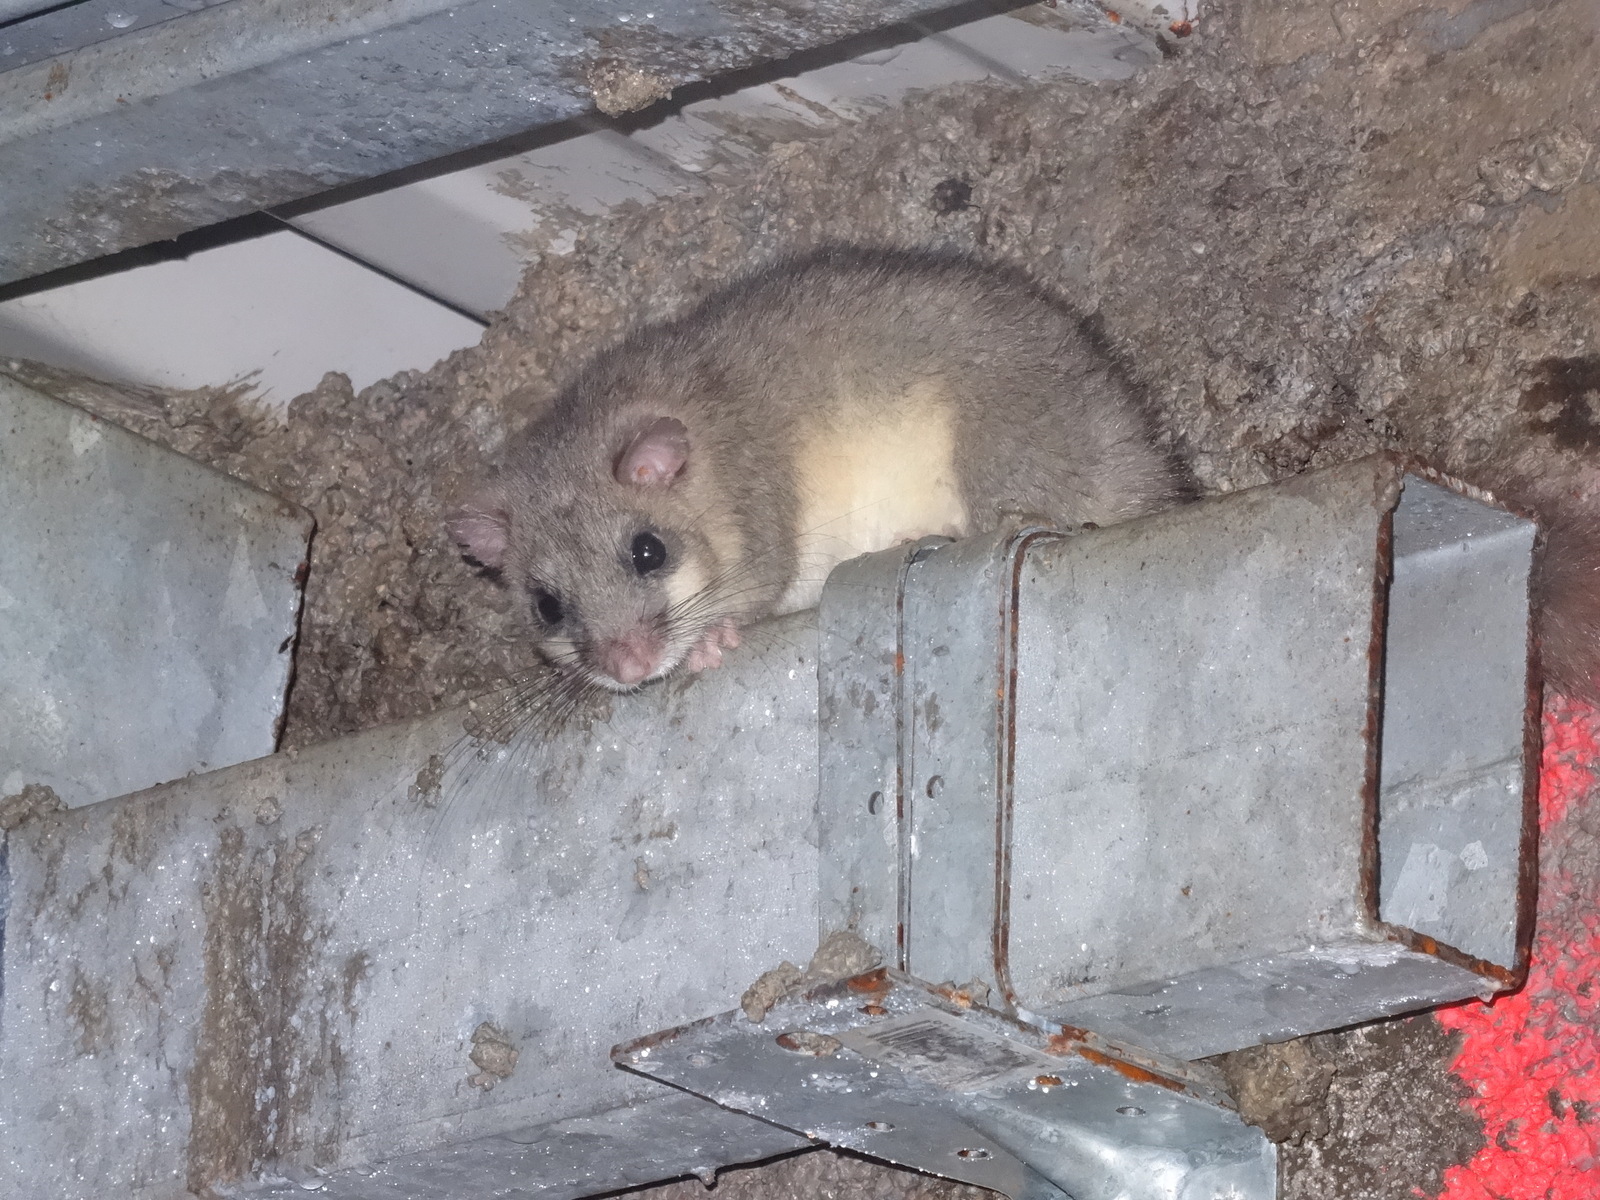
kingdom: Animalia
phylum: Chordata
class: Mammalia
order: Rodentia
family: Gliridae
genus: Glis
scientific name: Glis glis
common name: Fat dormouse
